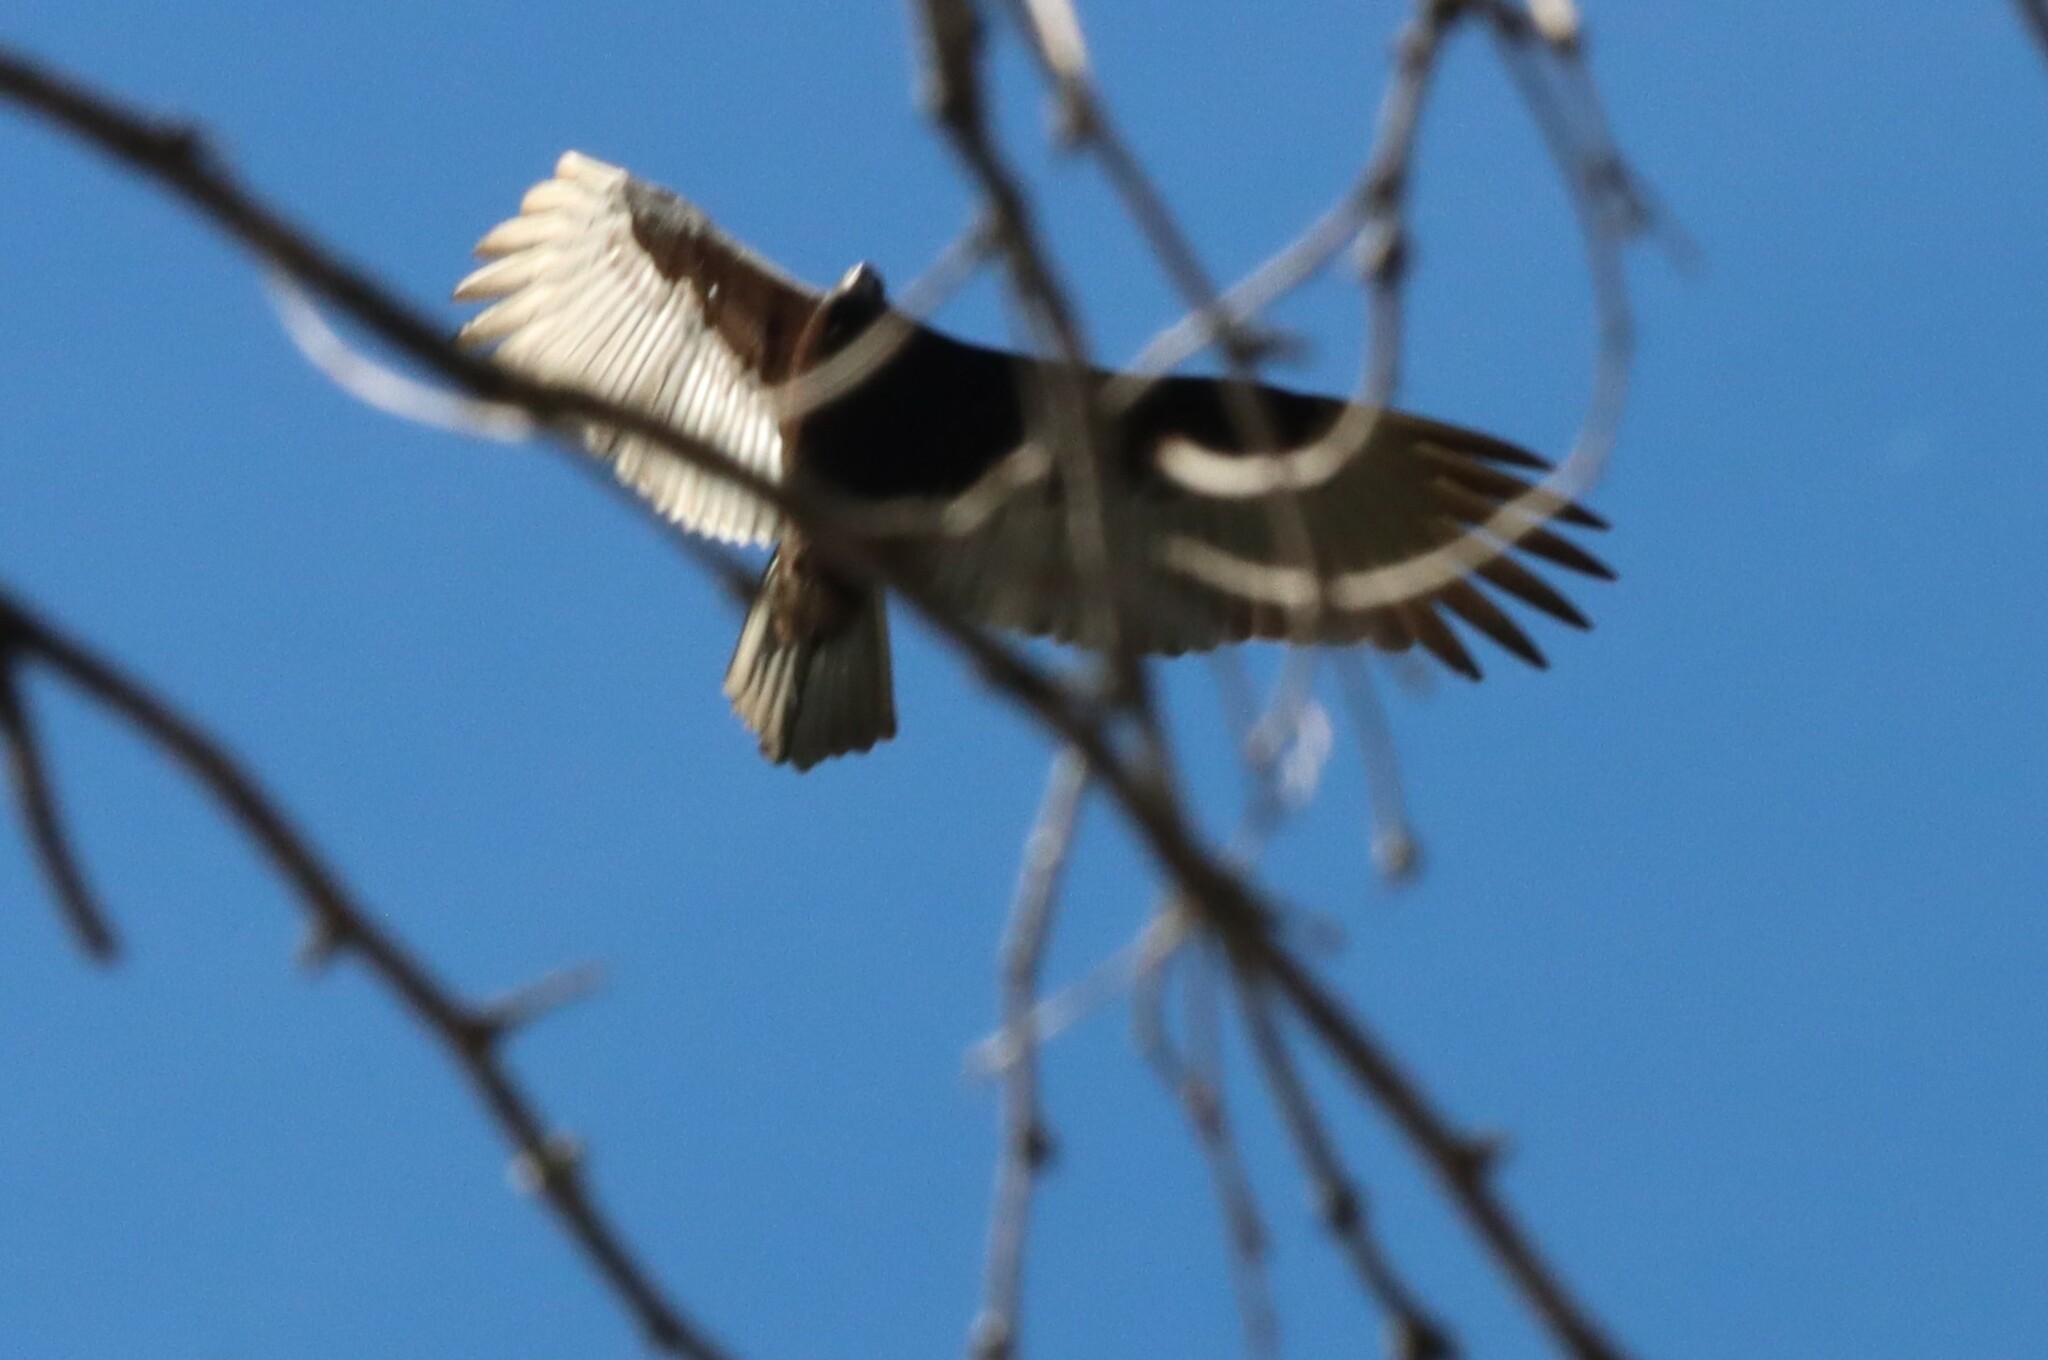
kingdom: Animalia
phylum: Chordata
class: Aves
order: Accipitriformes
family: Cathartidae
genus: Cathartes
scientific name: Cathartes aura
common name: Turkey vulture
